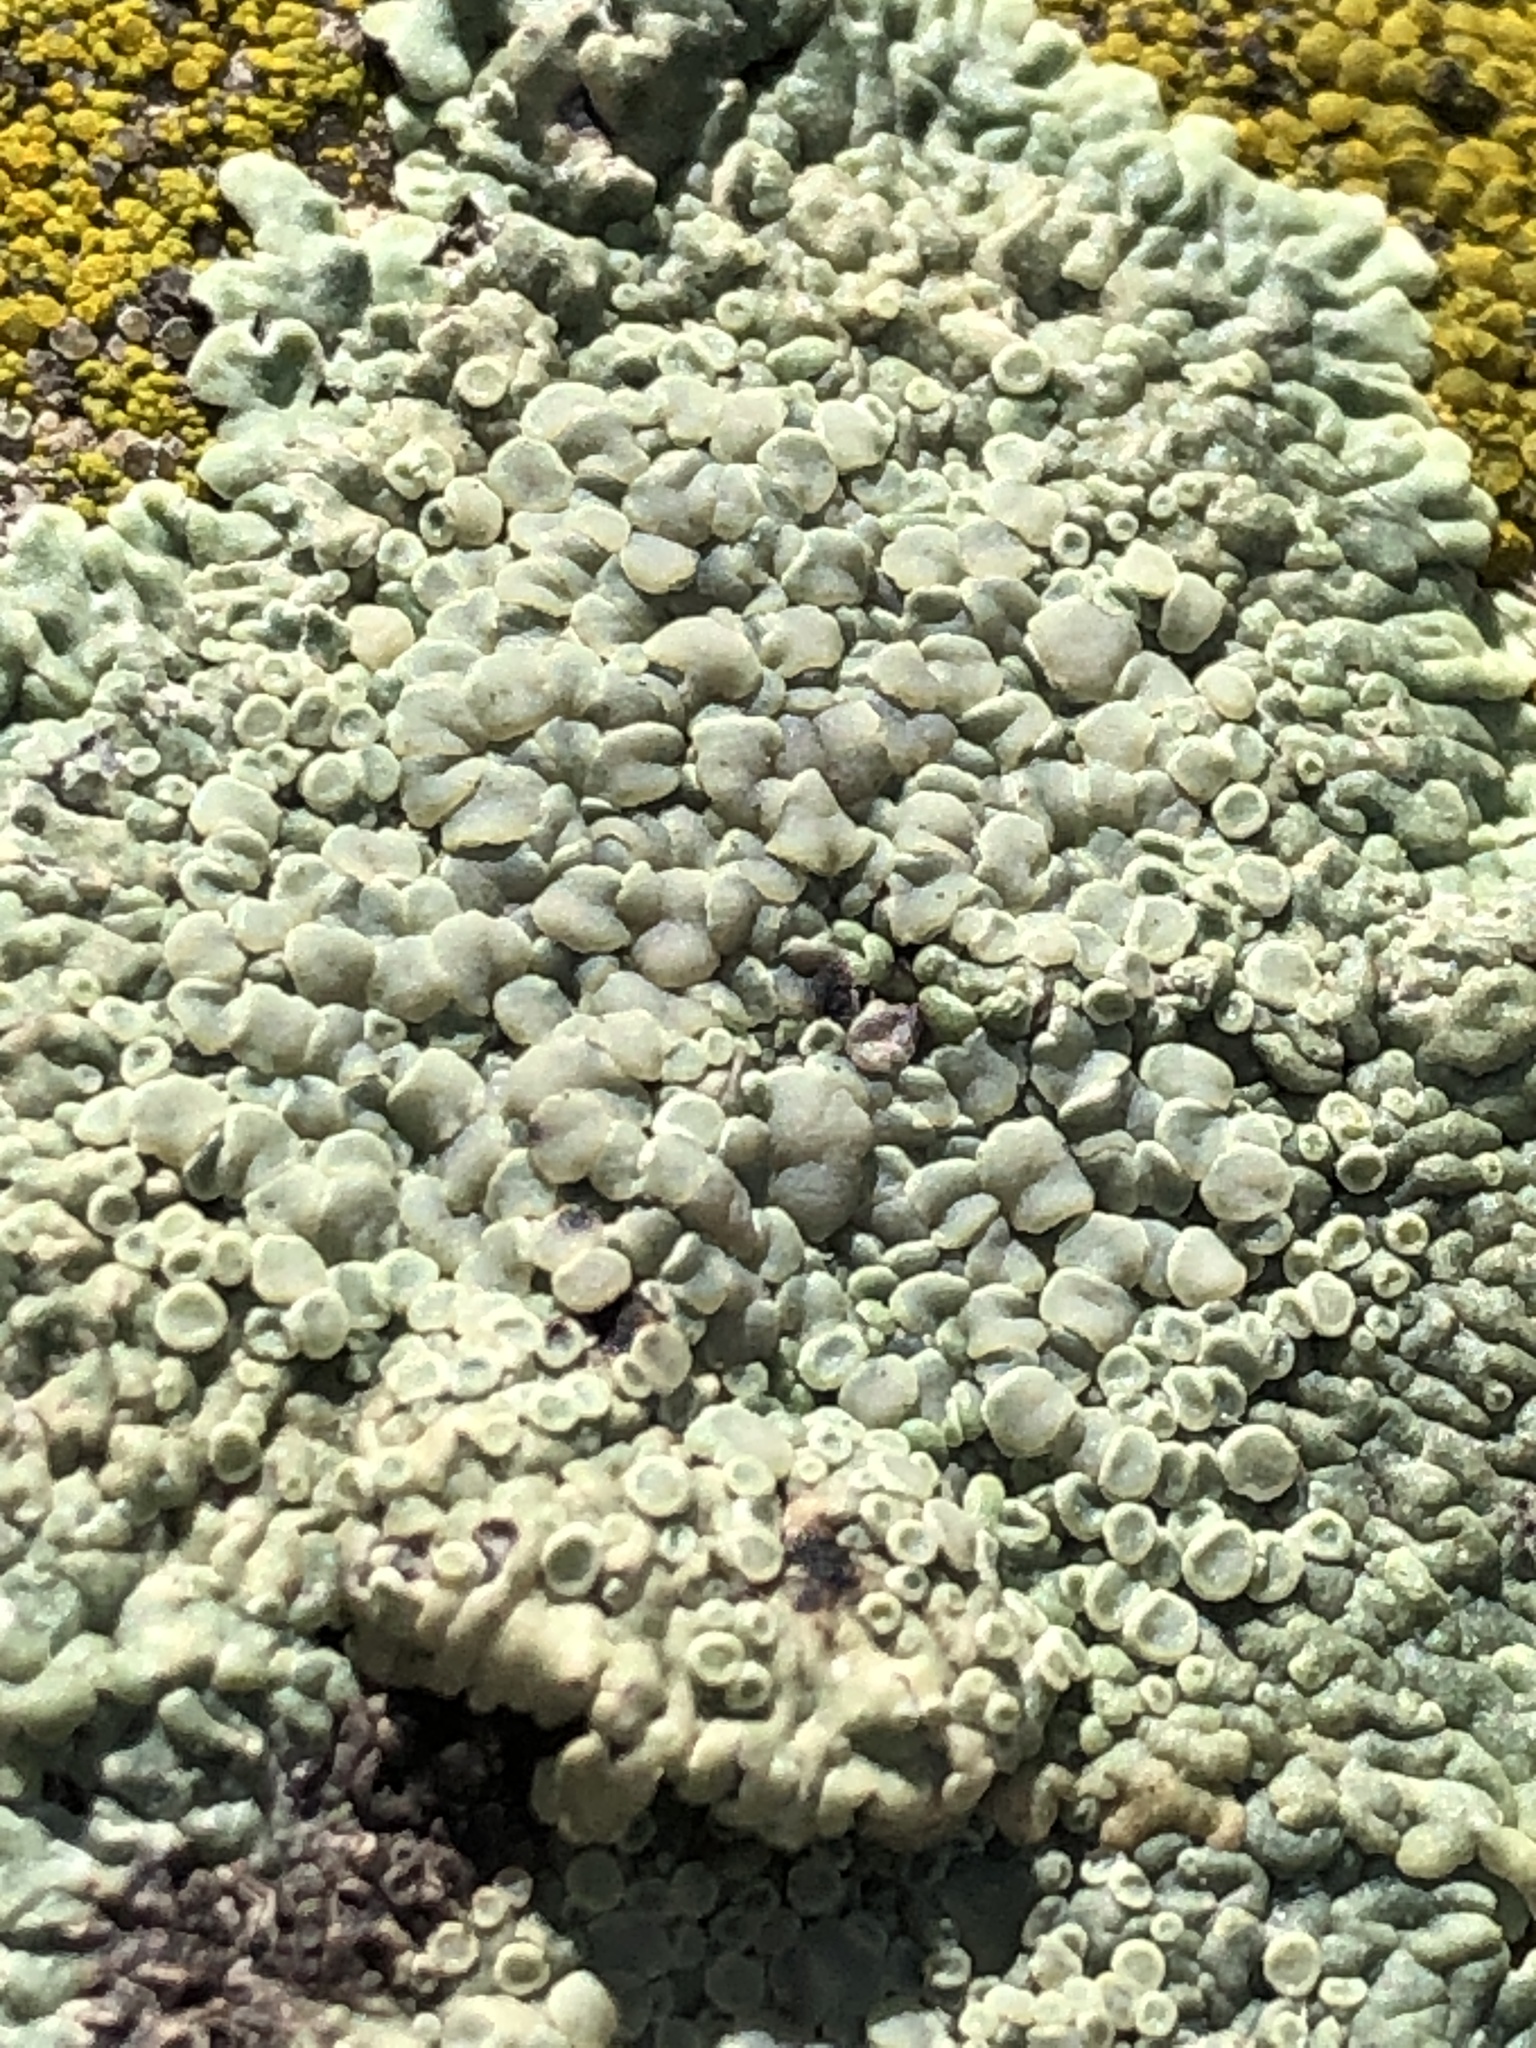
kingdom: Fungi
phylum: Ascomycota
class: Lecanoromycetes
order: Lecanorales
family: Lecanoraceae
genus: Protoparmeliopsis
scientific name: Protoparmeliopsis muralis
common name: Stonewall rim lichen
